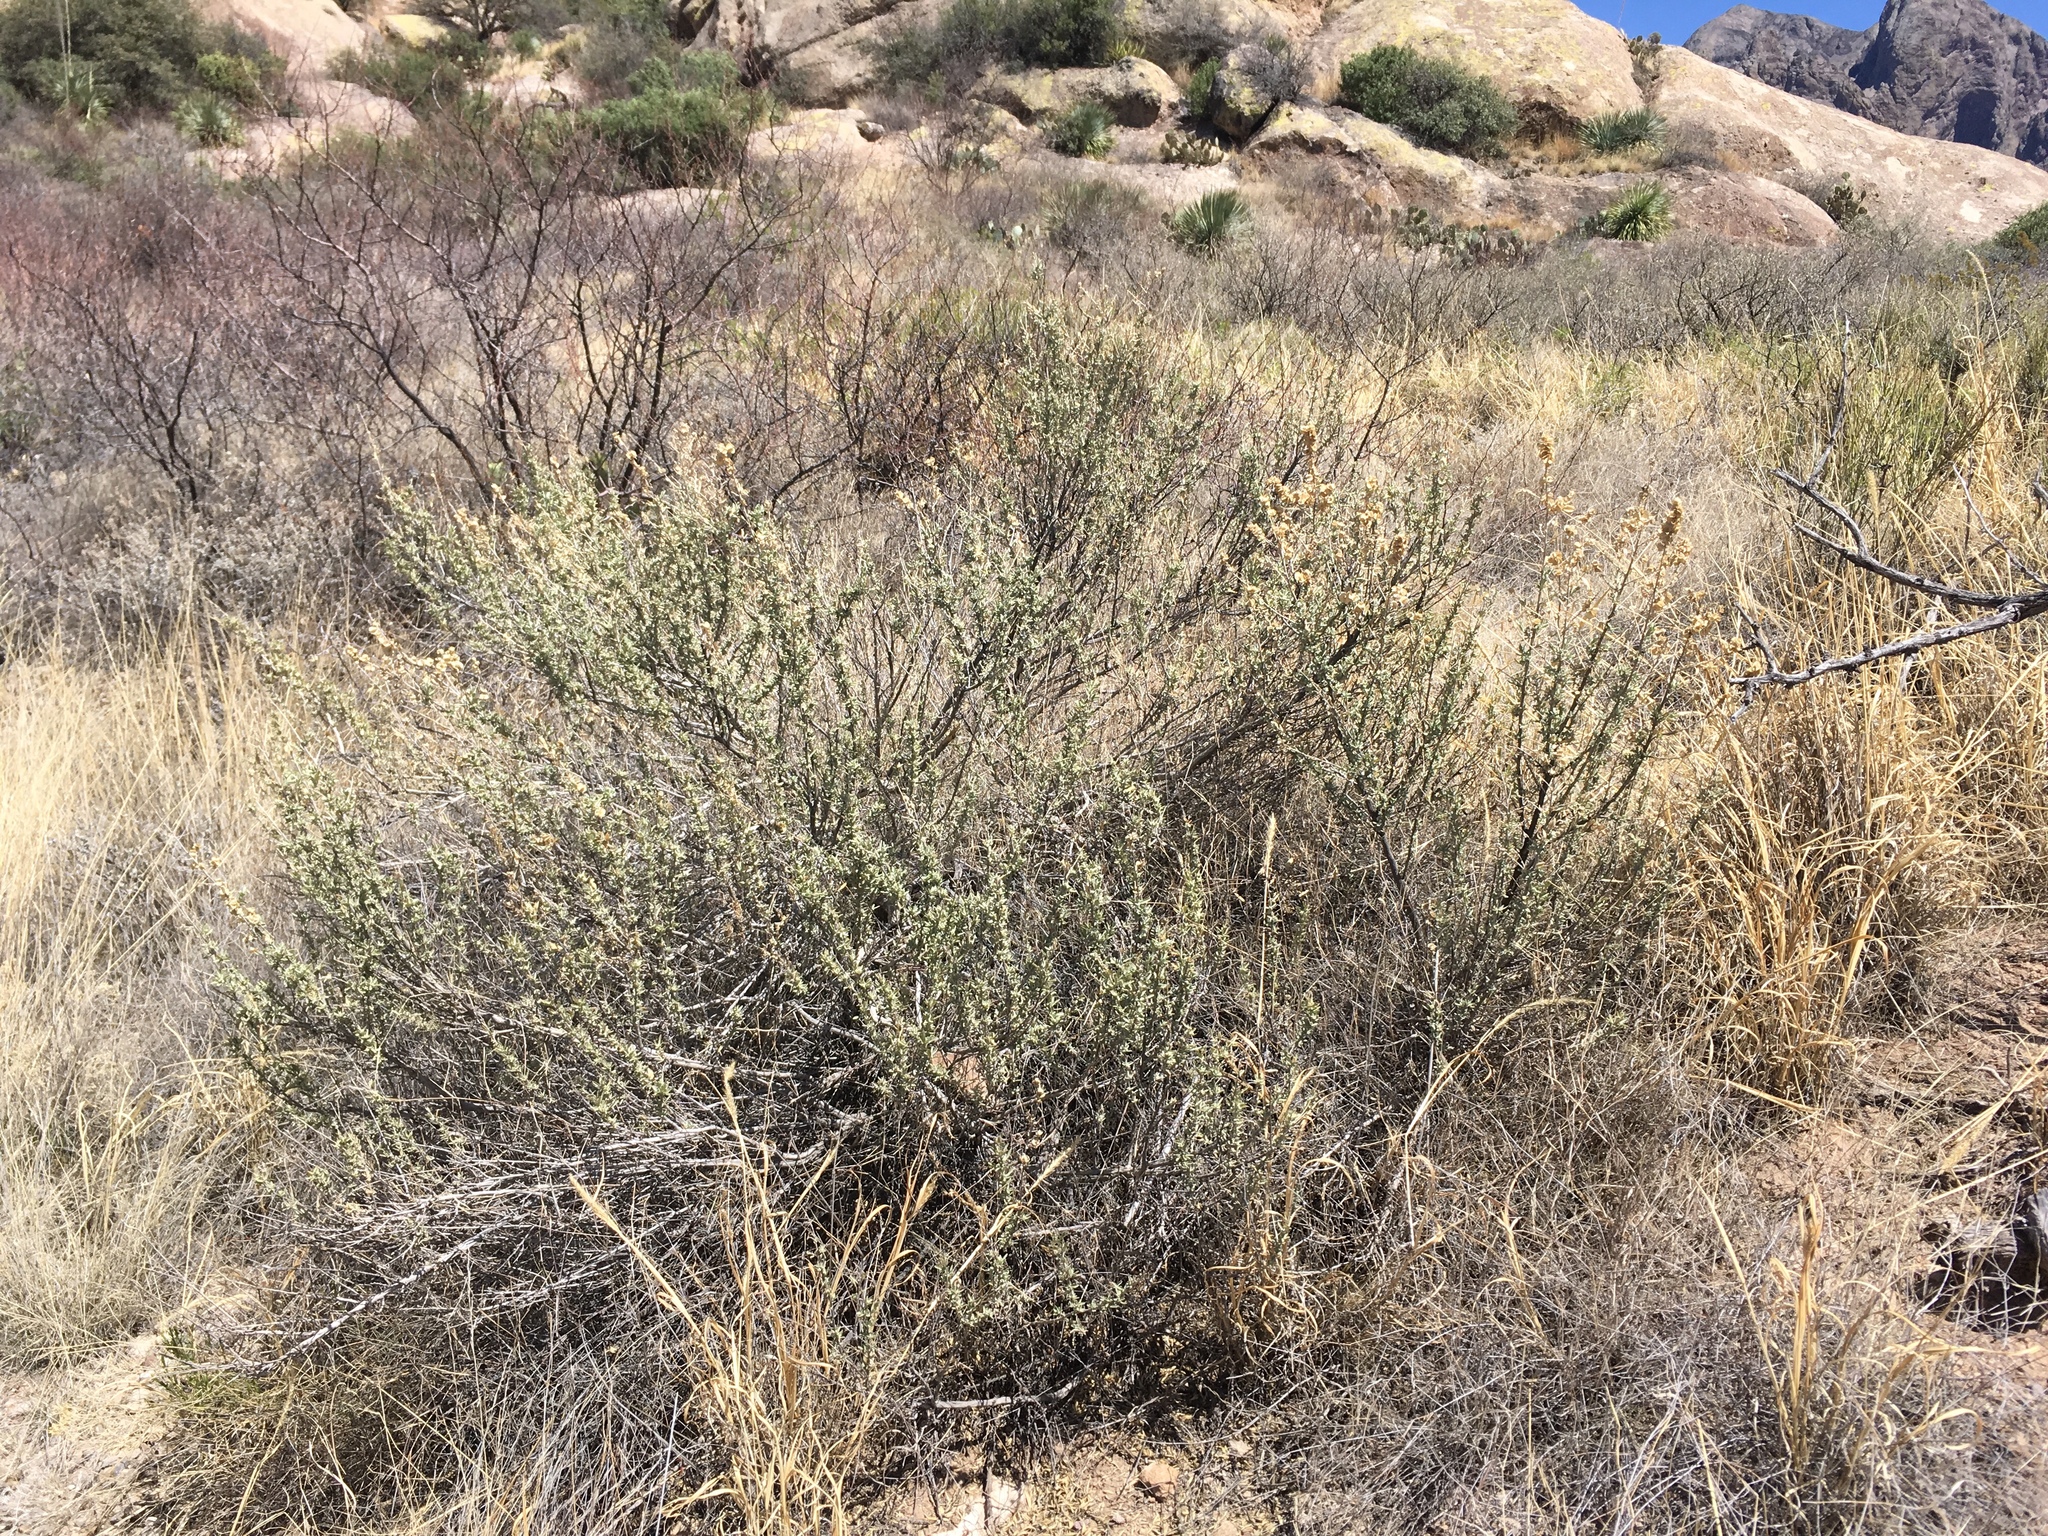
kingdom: Plantae
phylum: Tracheophyta
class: Magnoliopsida
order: Caryophyllales
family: Amaranthaceae
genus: Atriplex
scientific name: Atriplex canescens
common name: Four-wing saltbush
